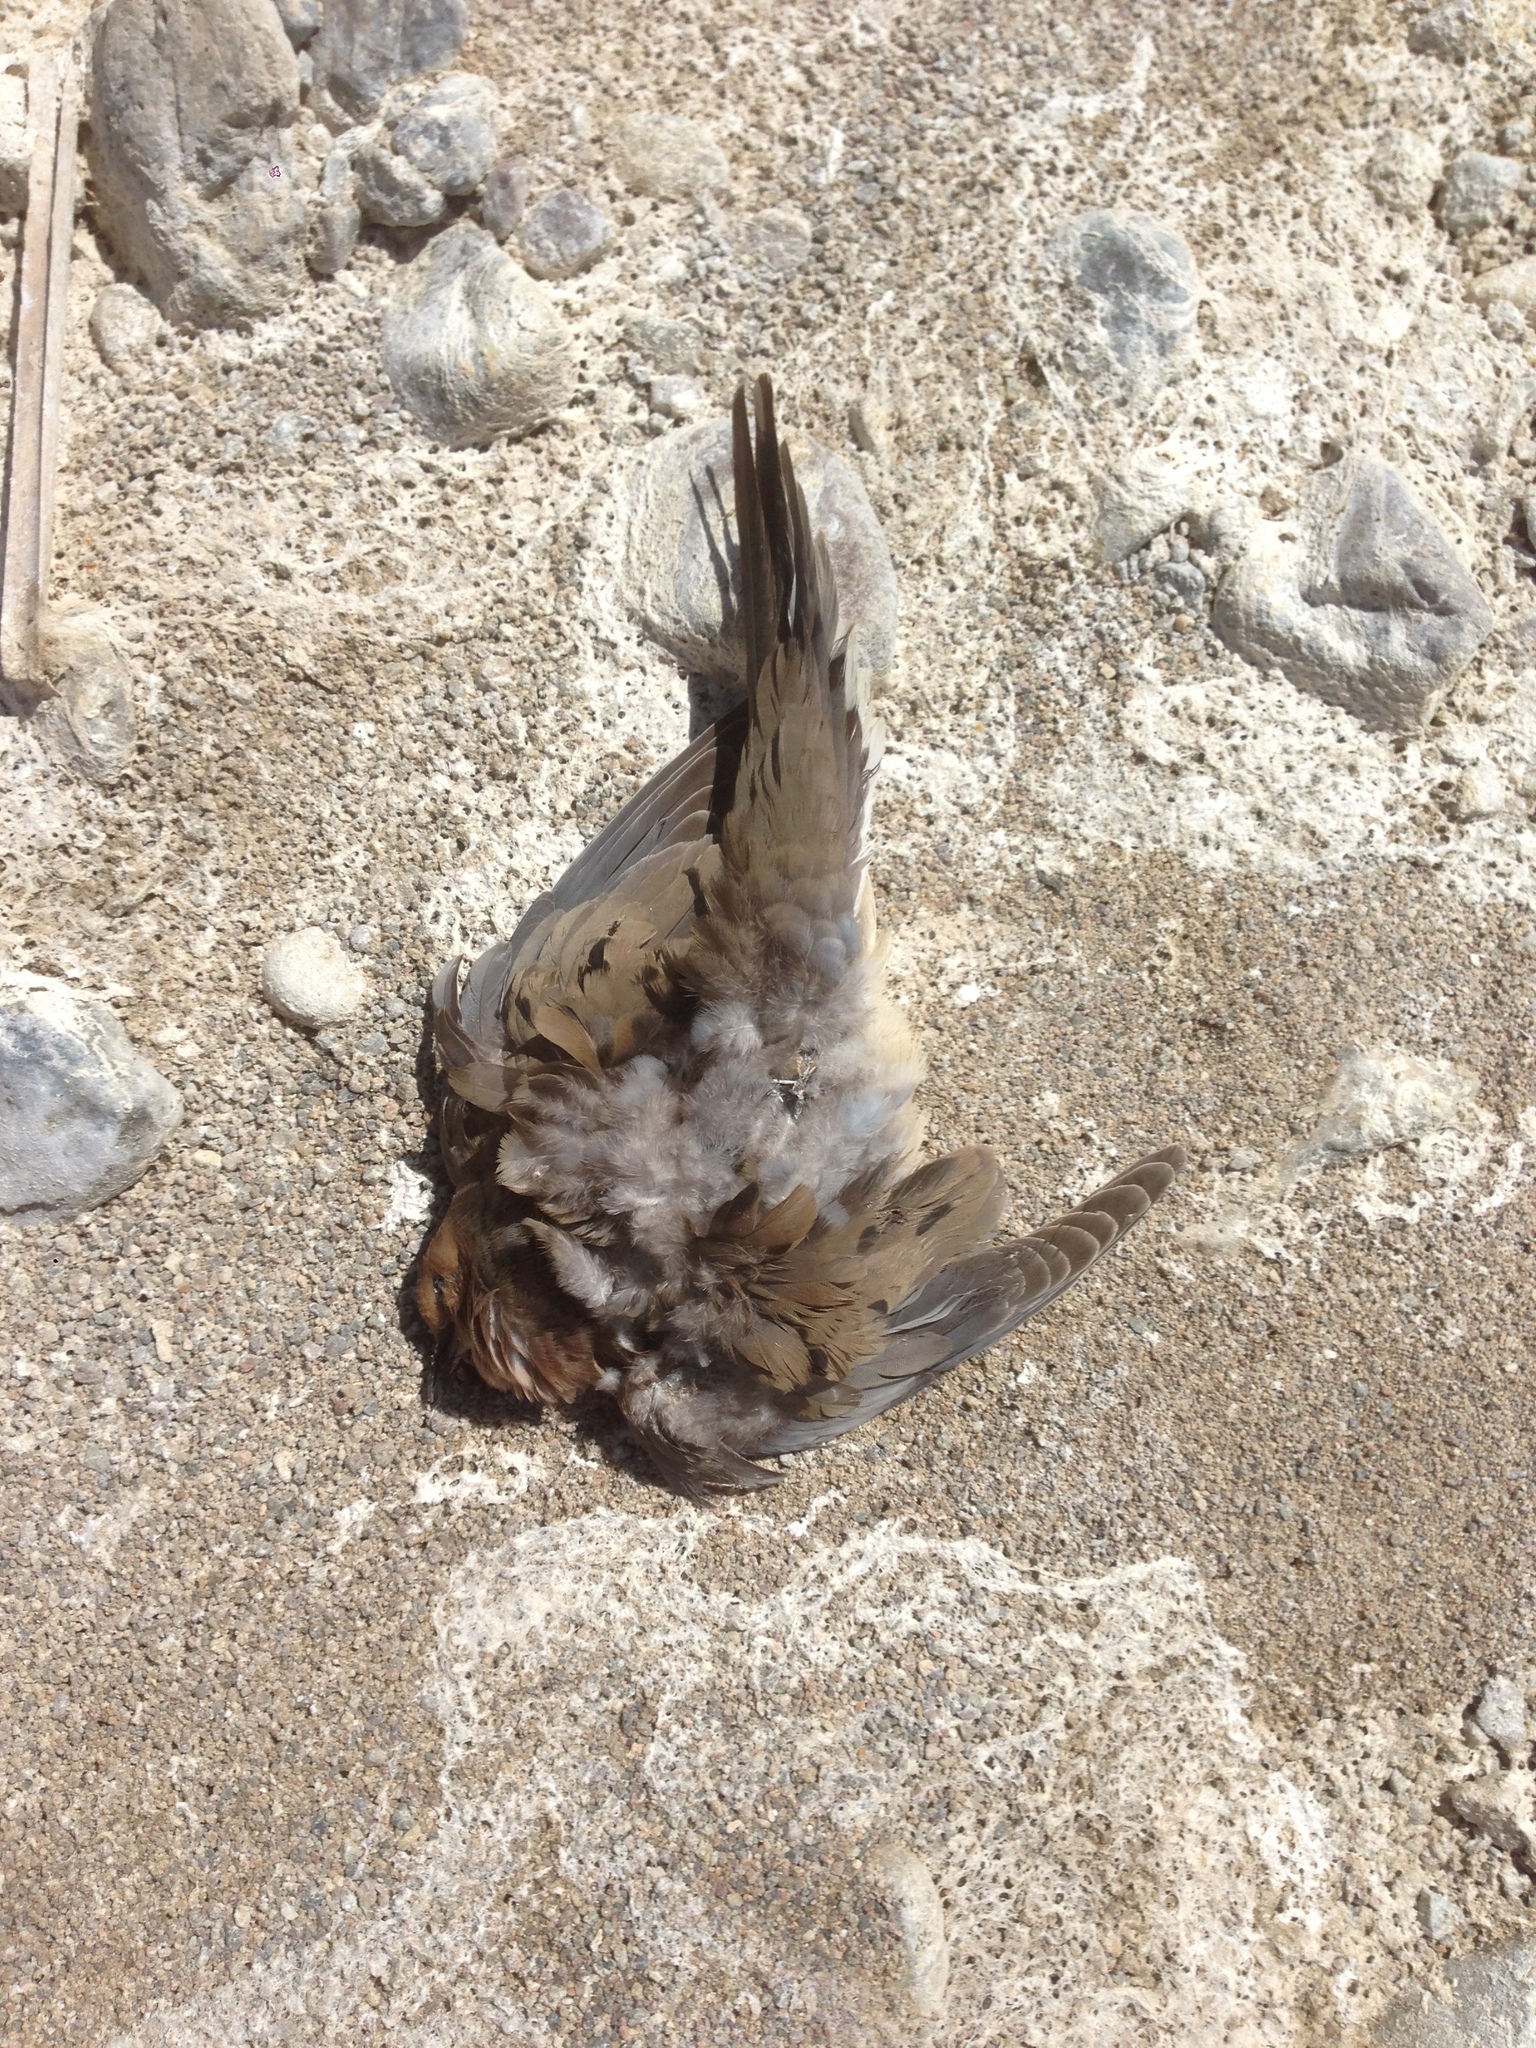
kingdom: Animalia
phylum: Chordata
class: Aves
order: Columbiformes
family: Columbidae
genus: Zenaida
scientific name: Zenaida macroura
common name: Mourning dove
